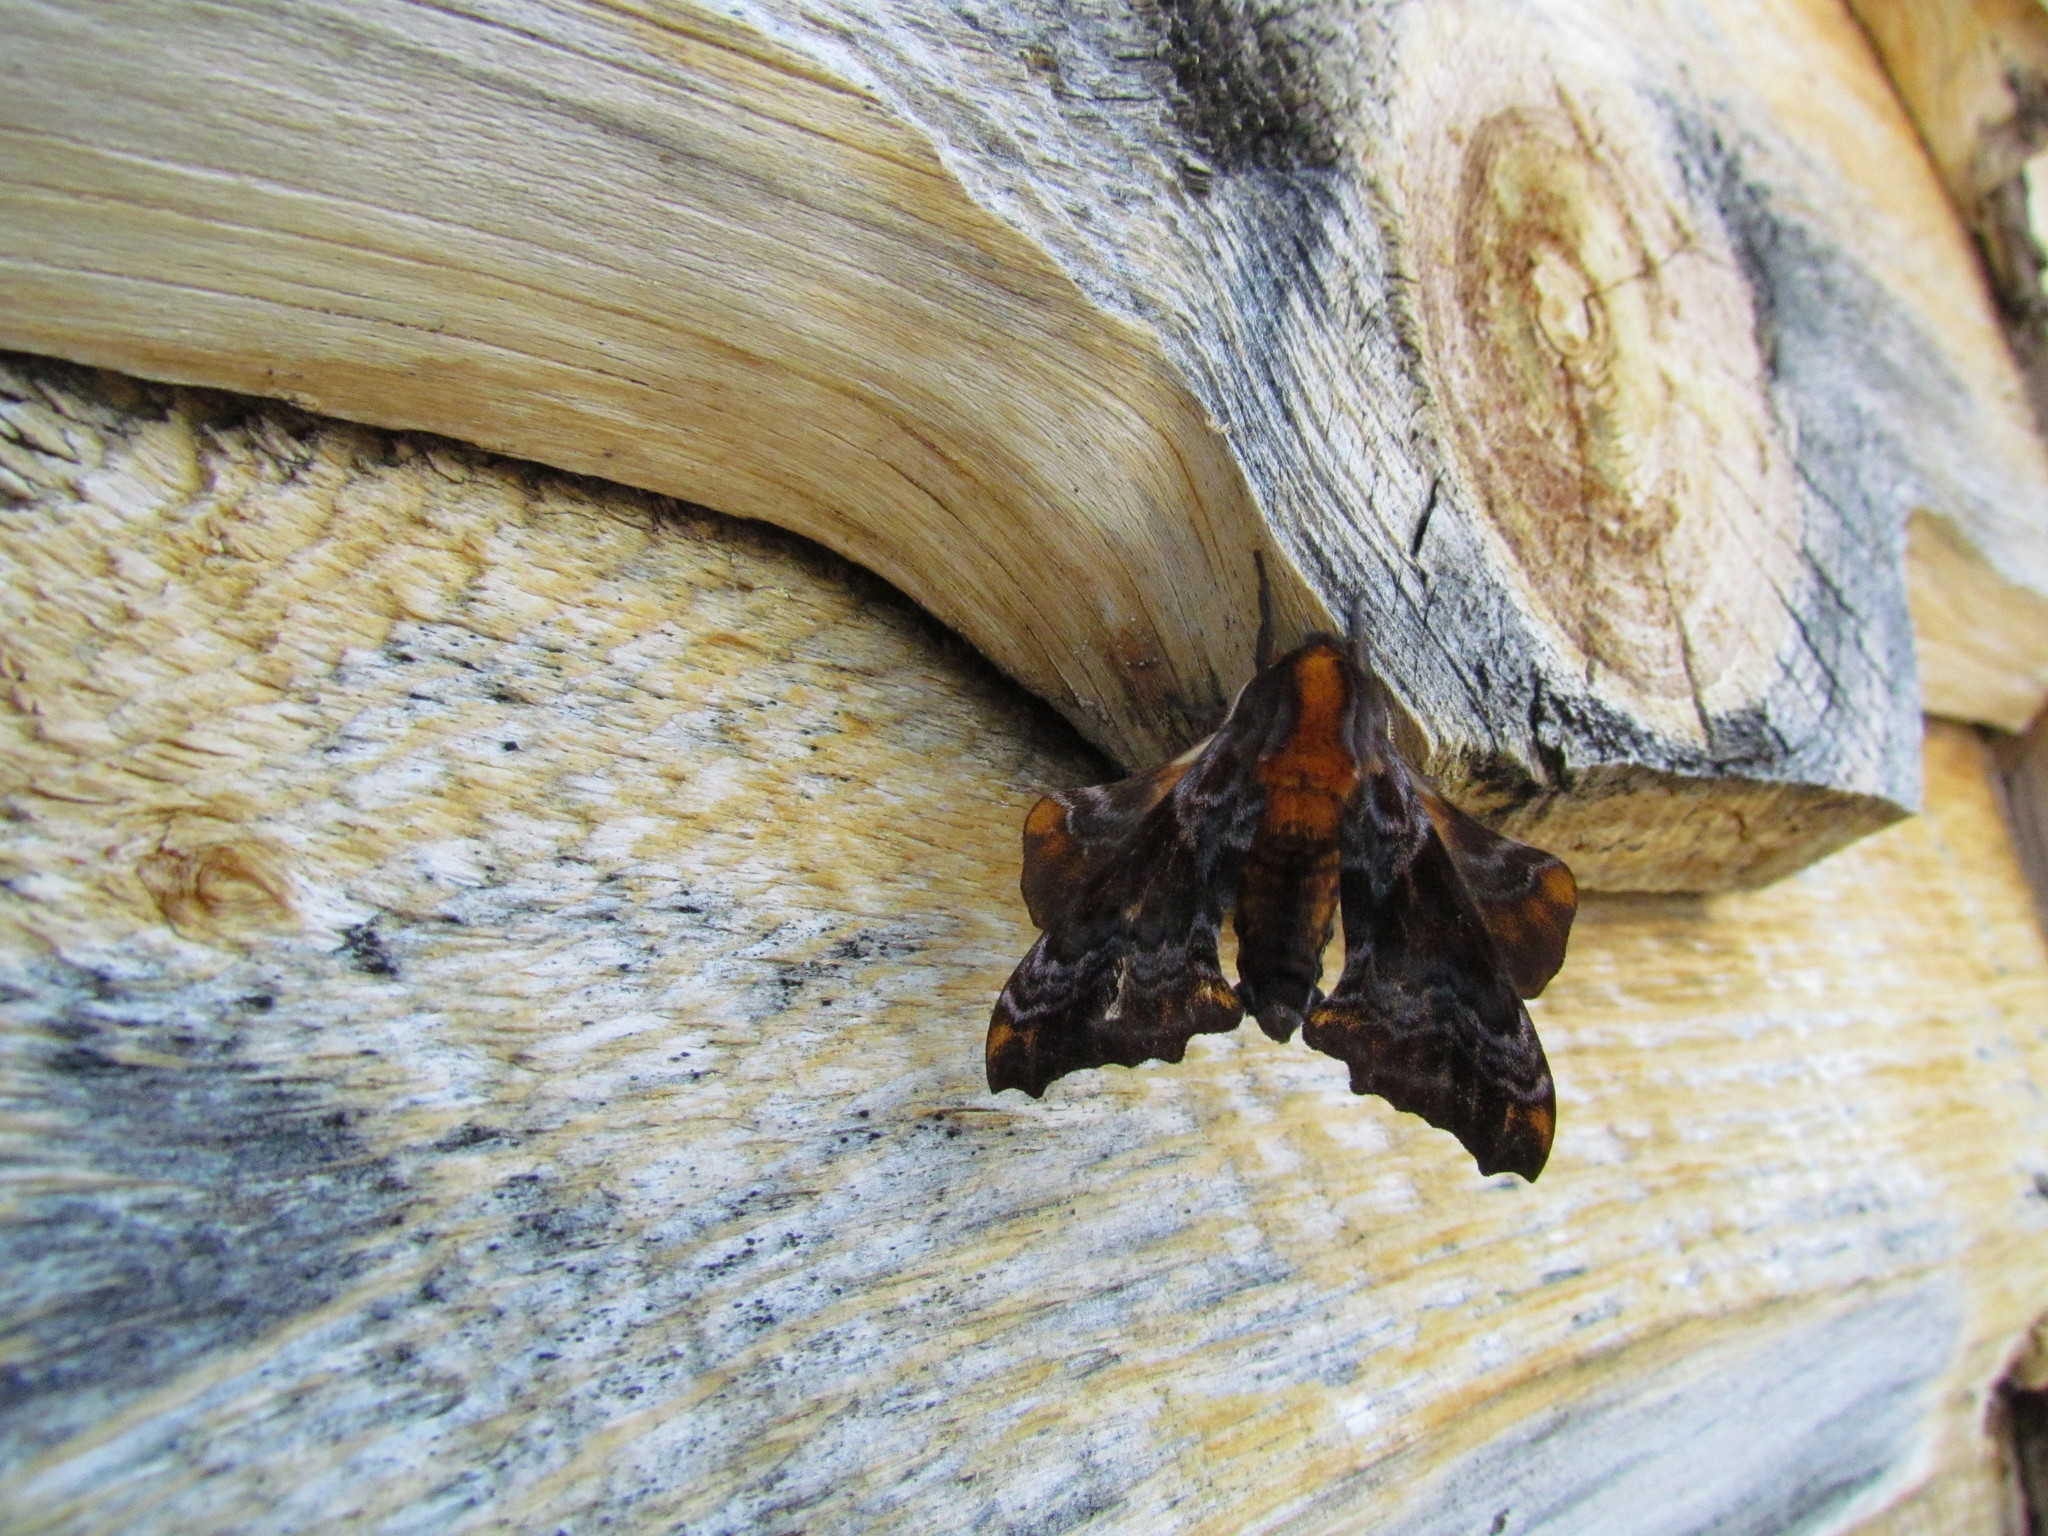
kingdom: Animalia
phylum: Arthropoda
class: Insecta
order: Lepidoptera
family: Sphingidae
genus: Paonias
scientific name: Paonias myops
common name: Small-eyed sphinx
